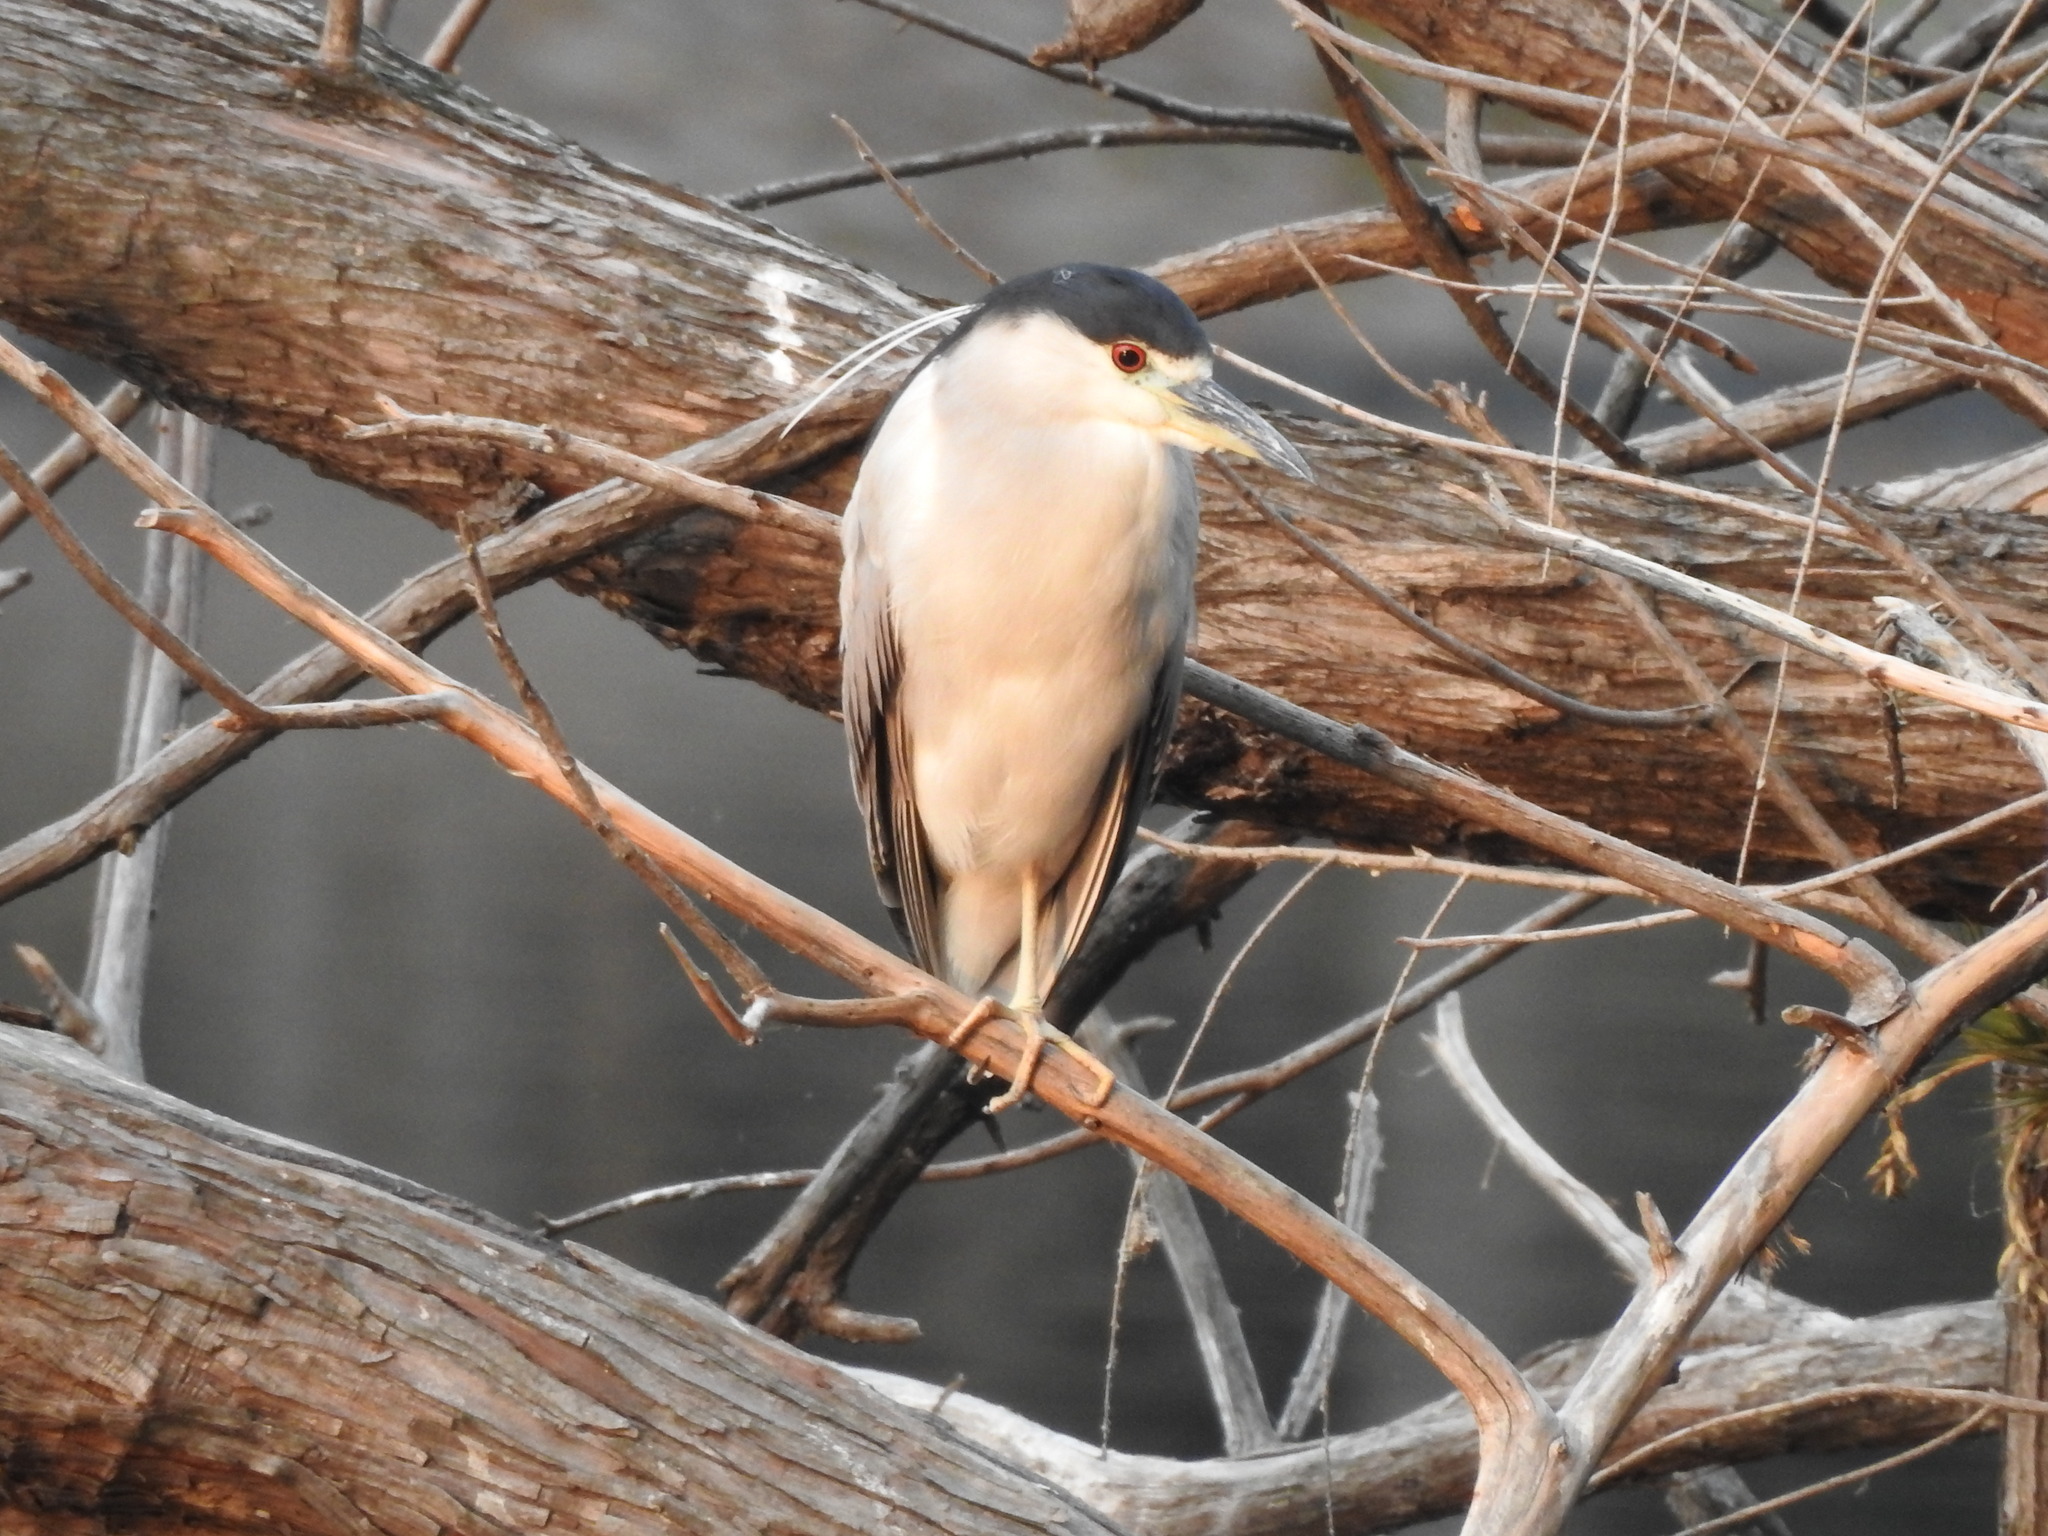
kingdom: Animalia
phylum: Chordata
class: Aves
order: Pelecaniformes
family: Ardeidae
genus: Nycticorax
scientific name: Nycticorax nycticorax
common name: Black-crowned night heron
